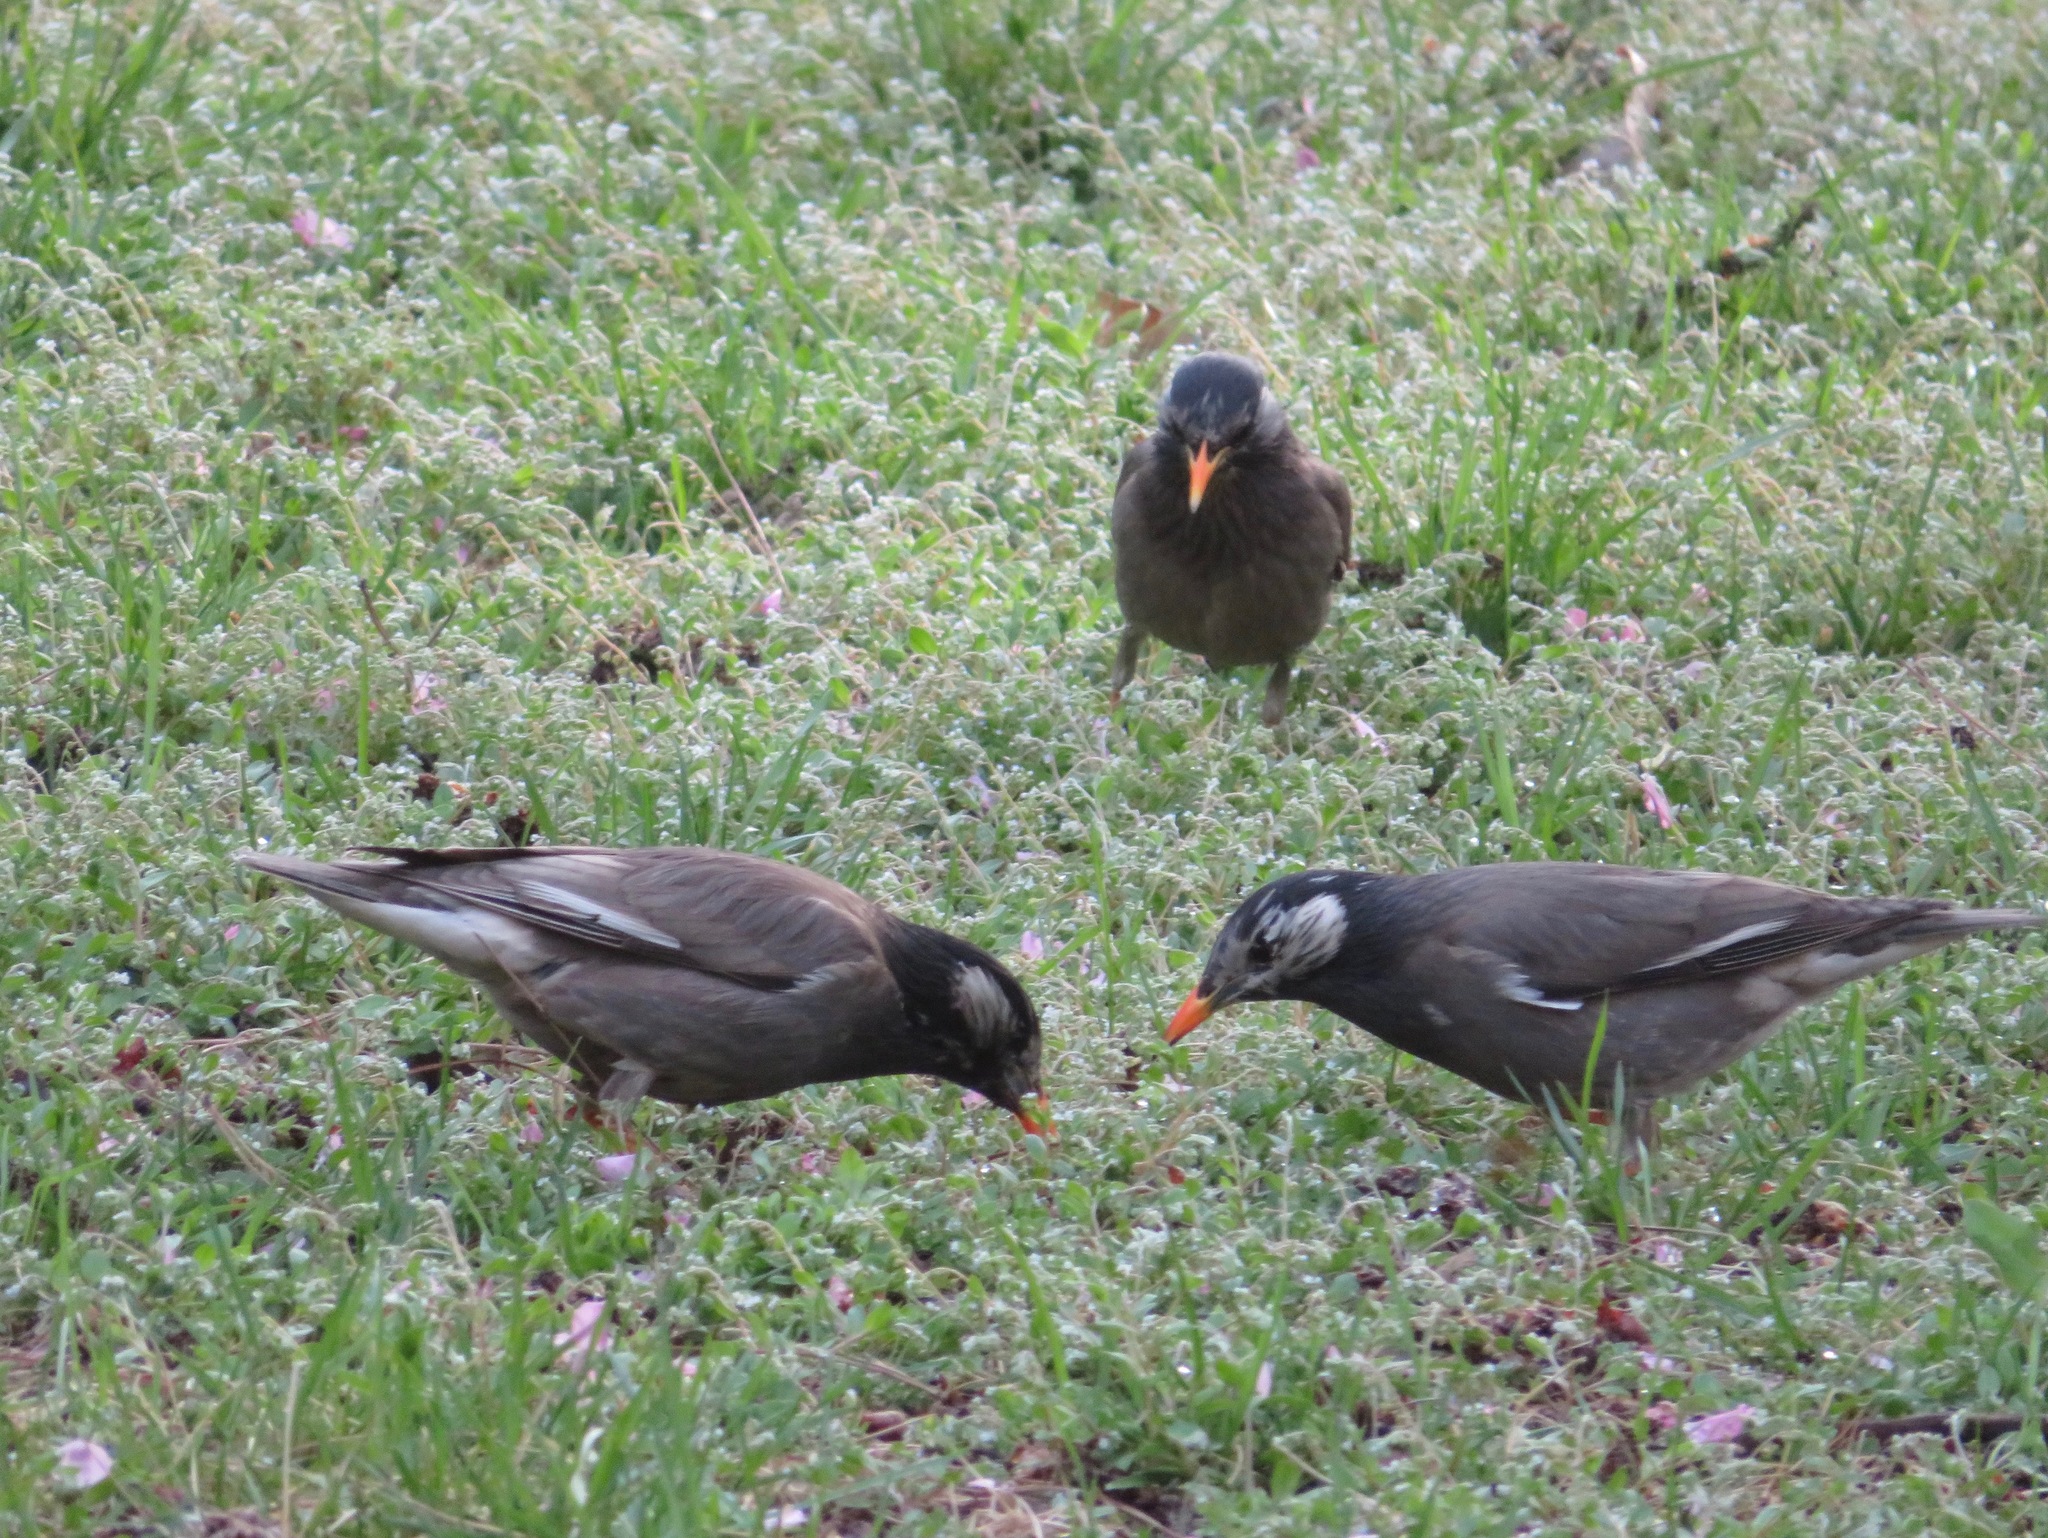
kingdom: Animalia
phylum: Chordata
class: Aves
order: Passeriformes
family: Sturnidae
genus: Spodiopsar
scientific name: Spodiopsar cineraceus
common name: White-cheeked starling
